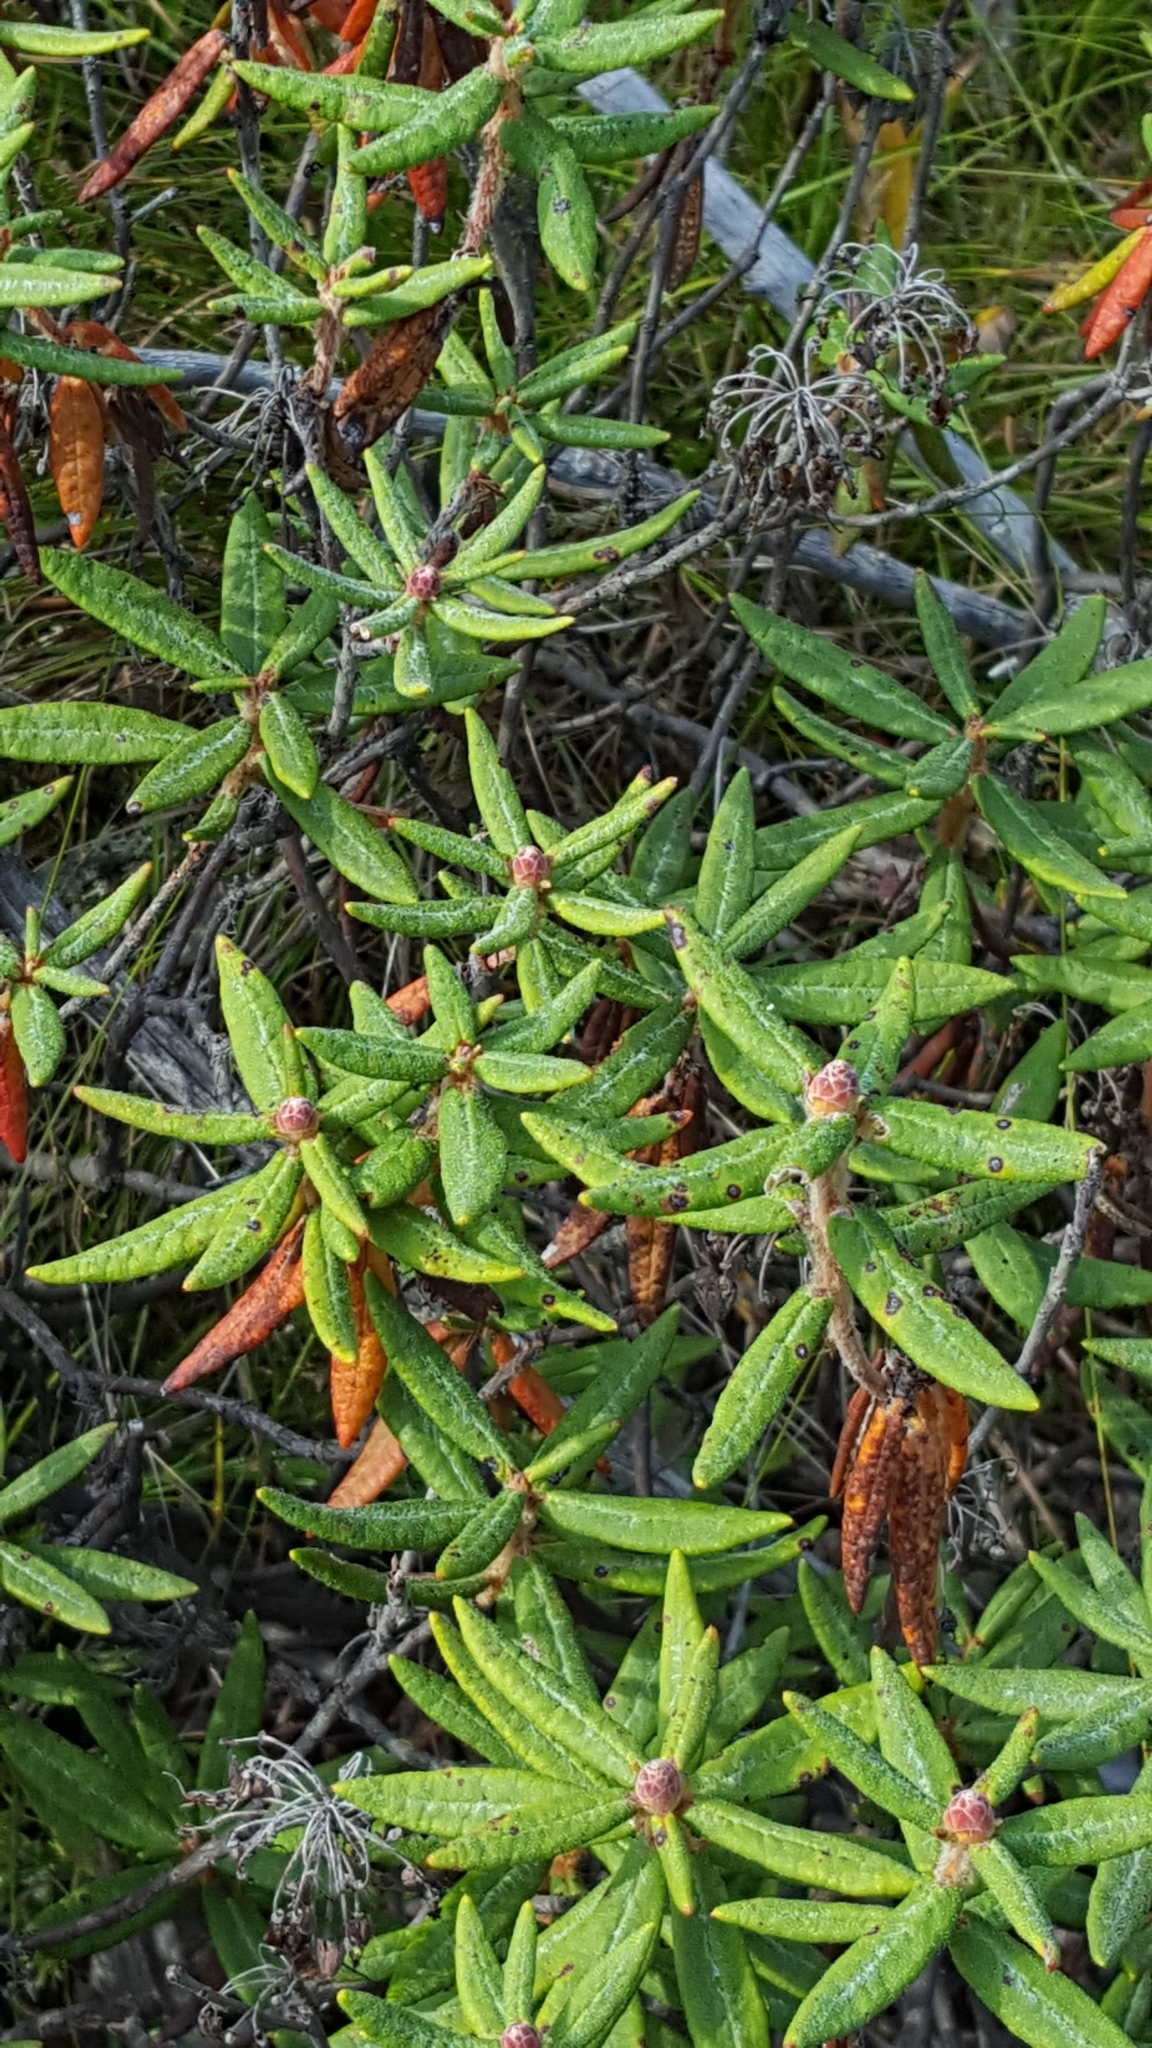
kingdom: Plantae
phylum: Tracheophyta
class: Magnoliopsida
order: Ericales
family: Ericaceae
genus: Rhododendron
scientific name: Rhododendron groenlandicum
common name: Bog labrador tea
